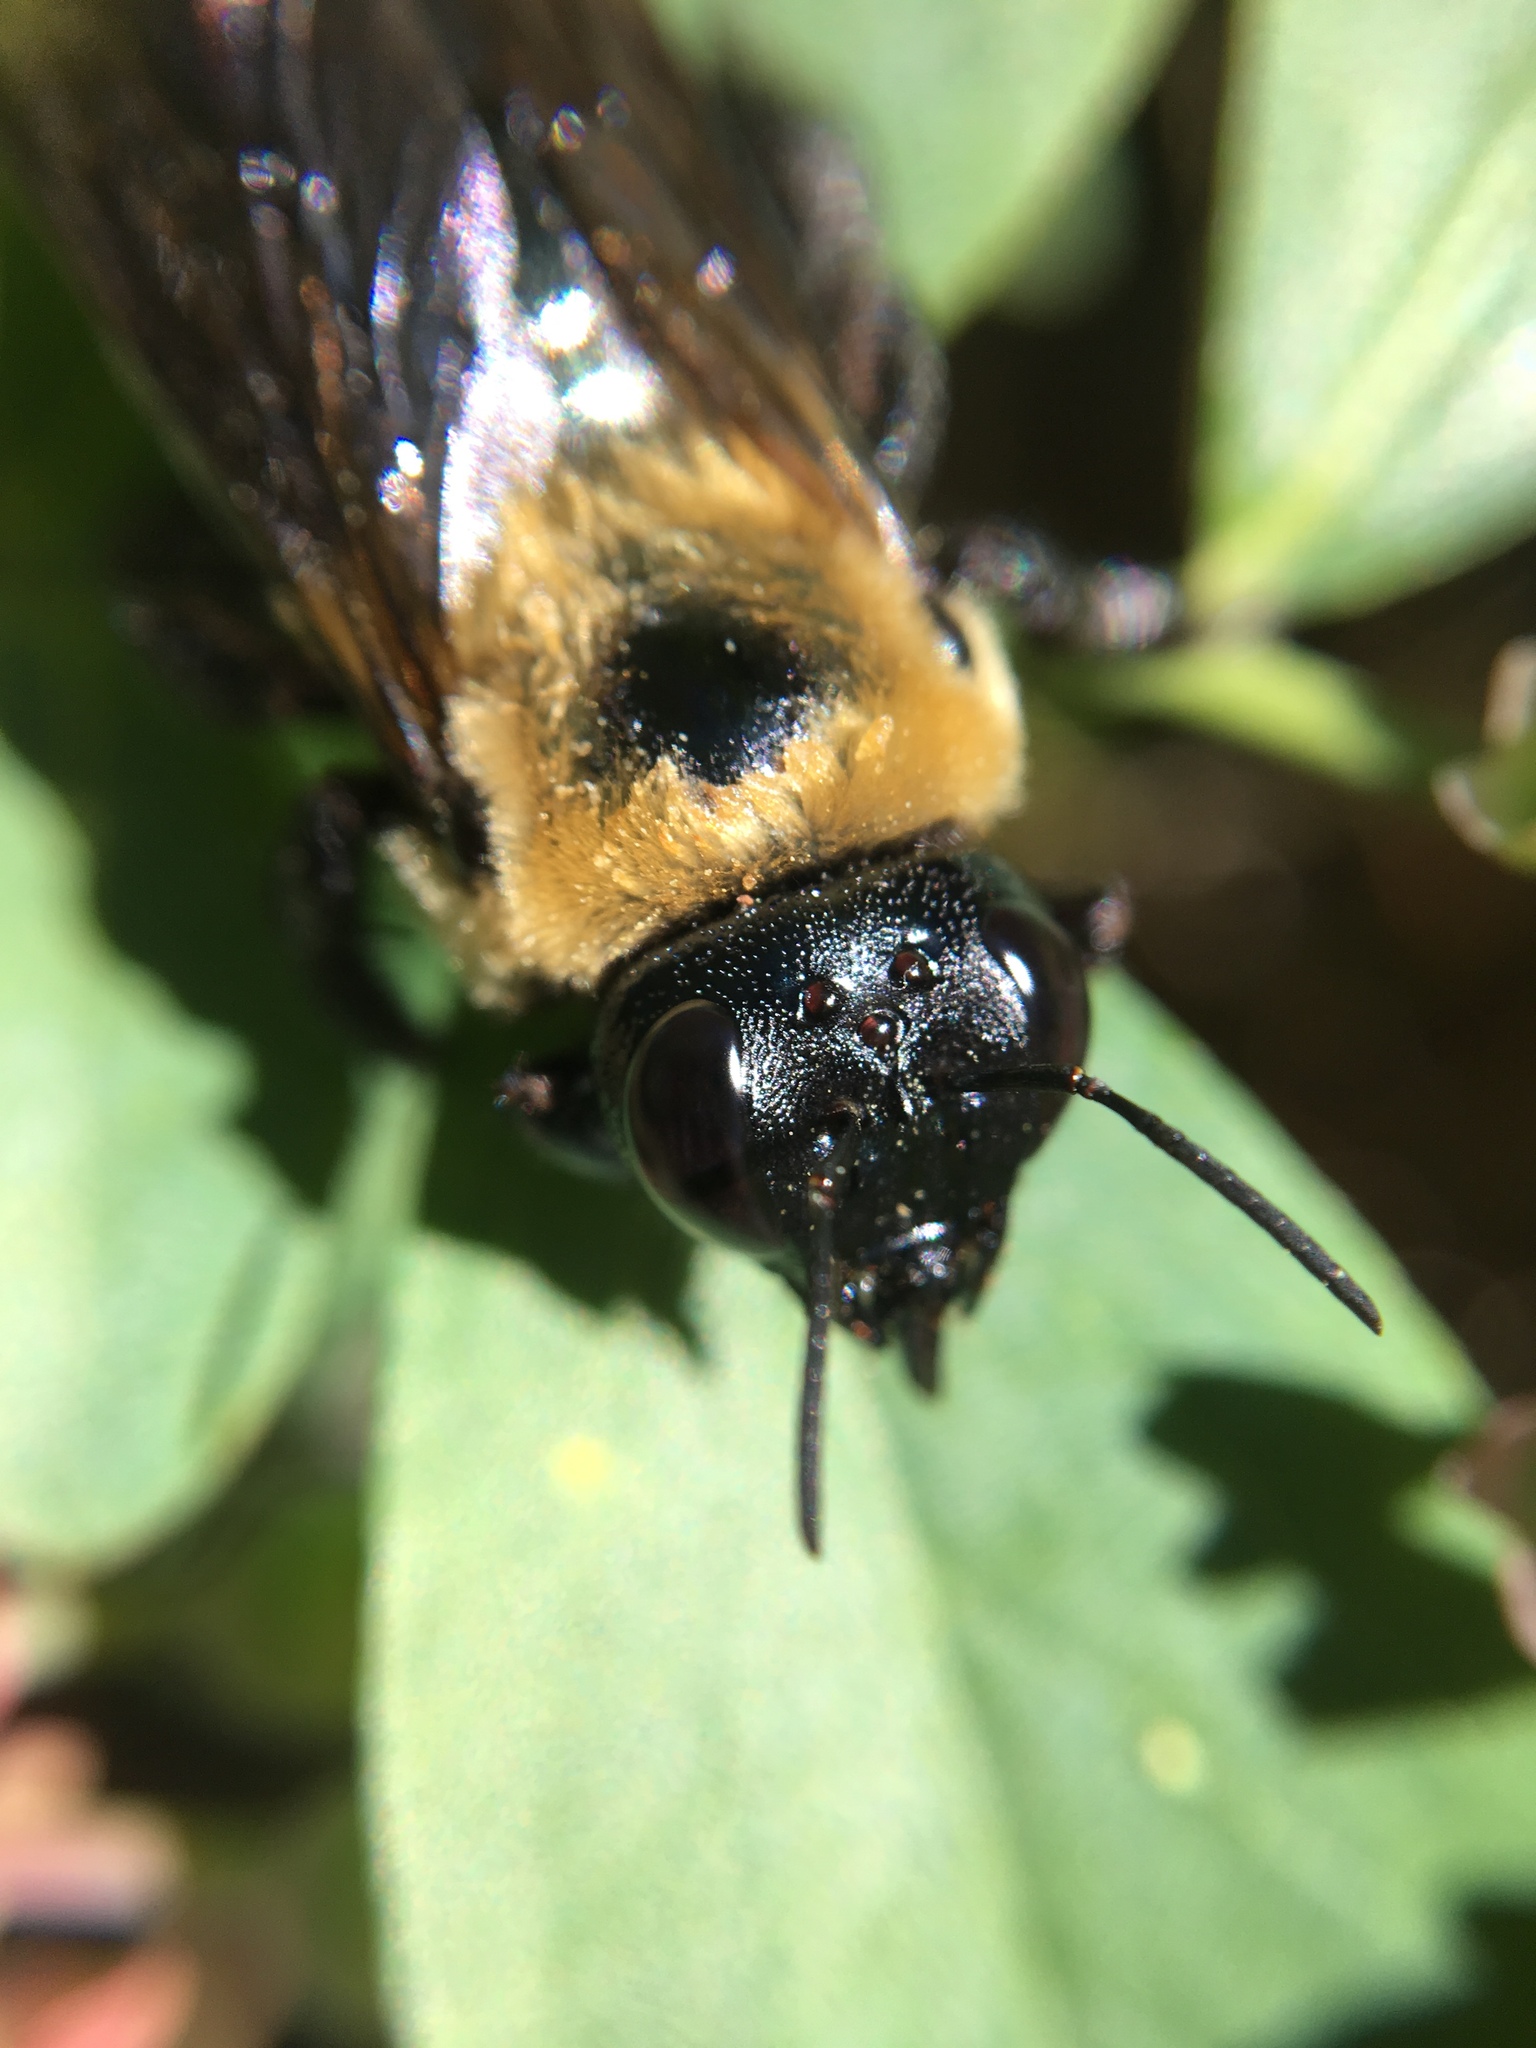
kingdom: Animalia
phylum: Arthropoda
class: Insecta
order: Hymenoptera
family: Apidae
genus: Xylocopa
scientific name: Xylocopa virginica
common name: Carpenter bee
